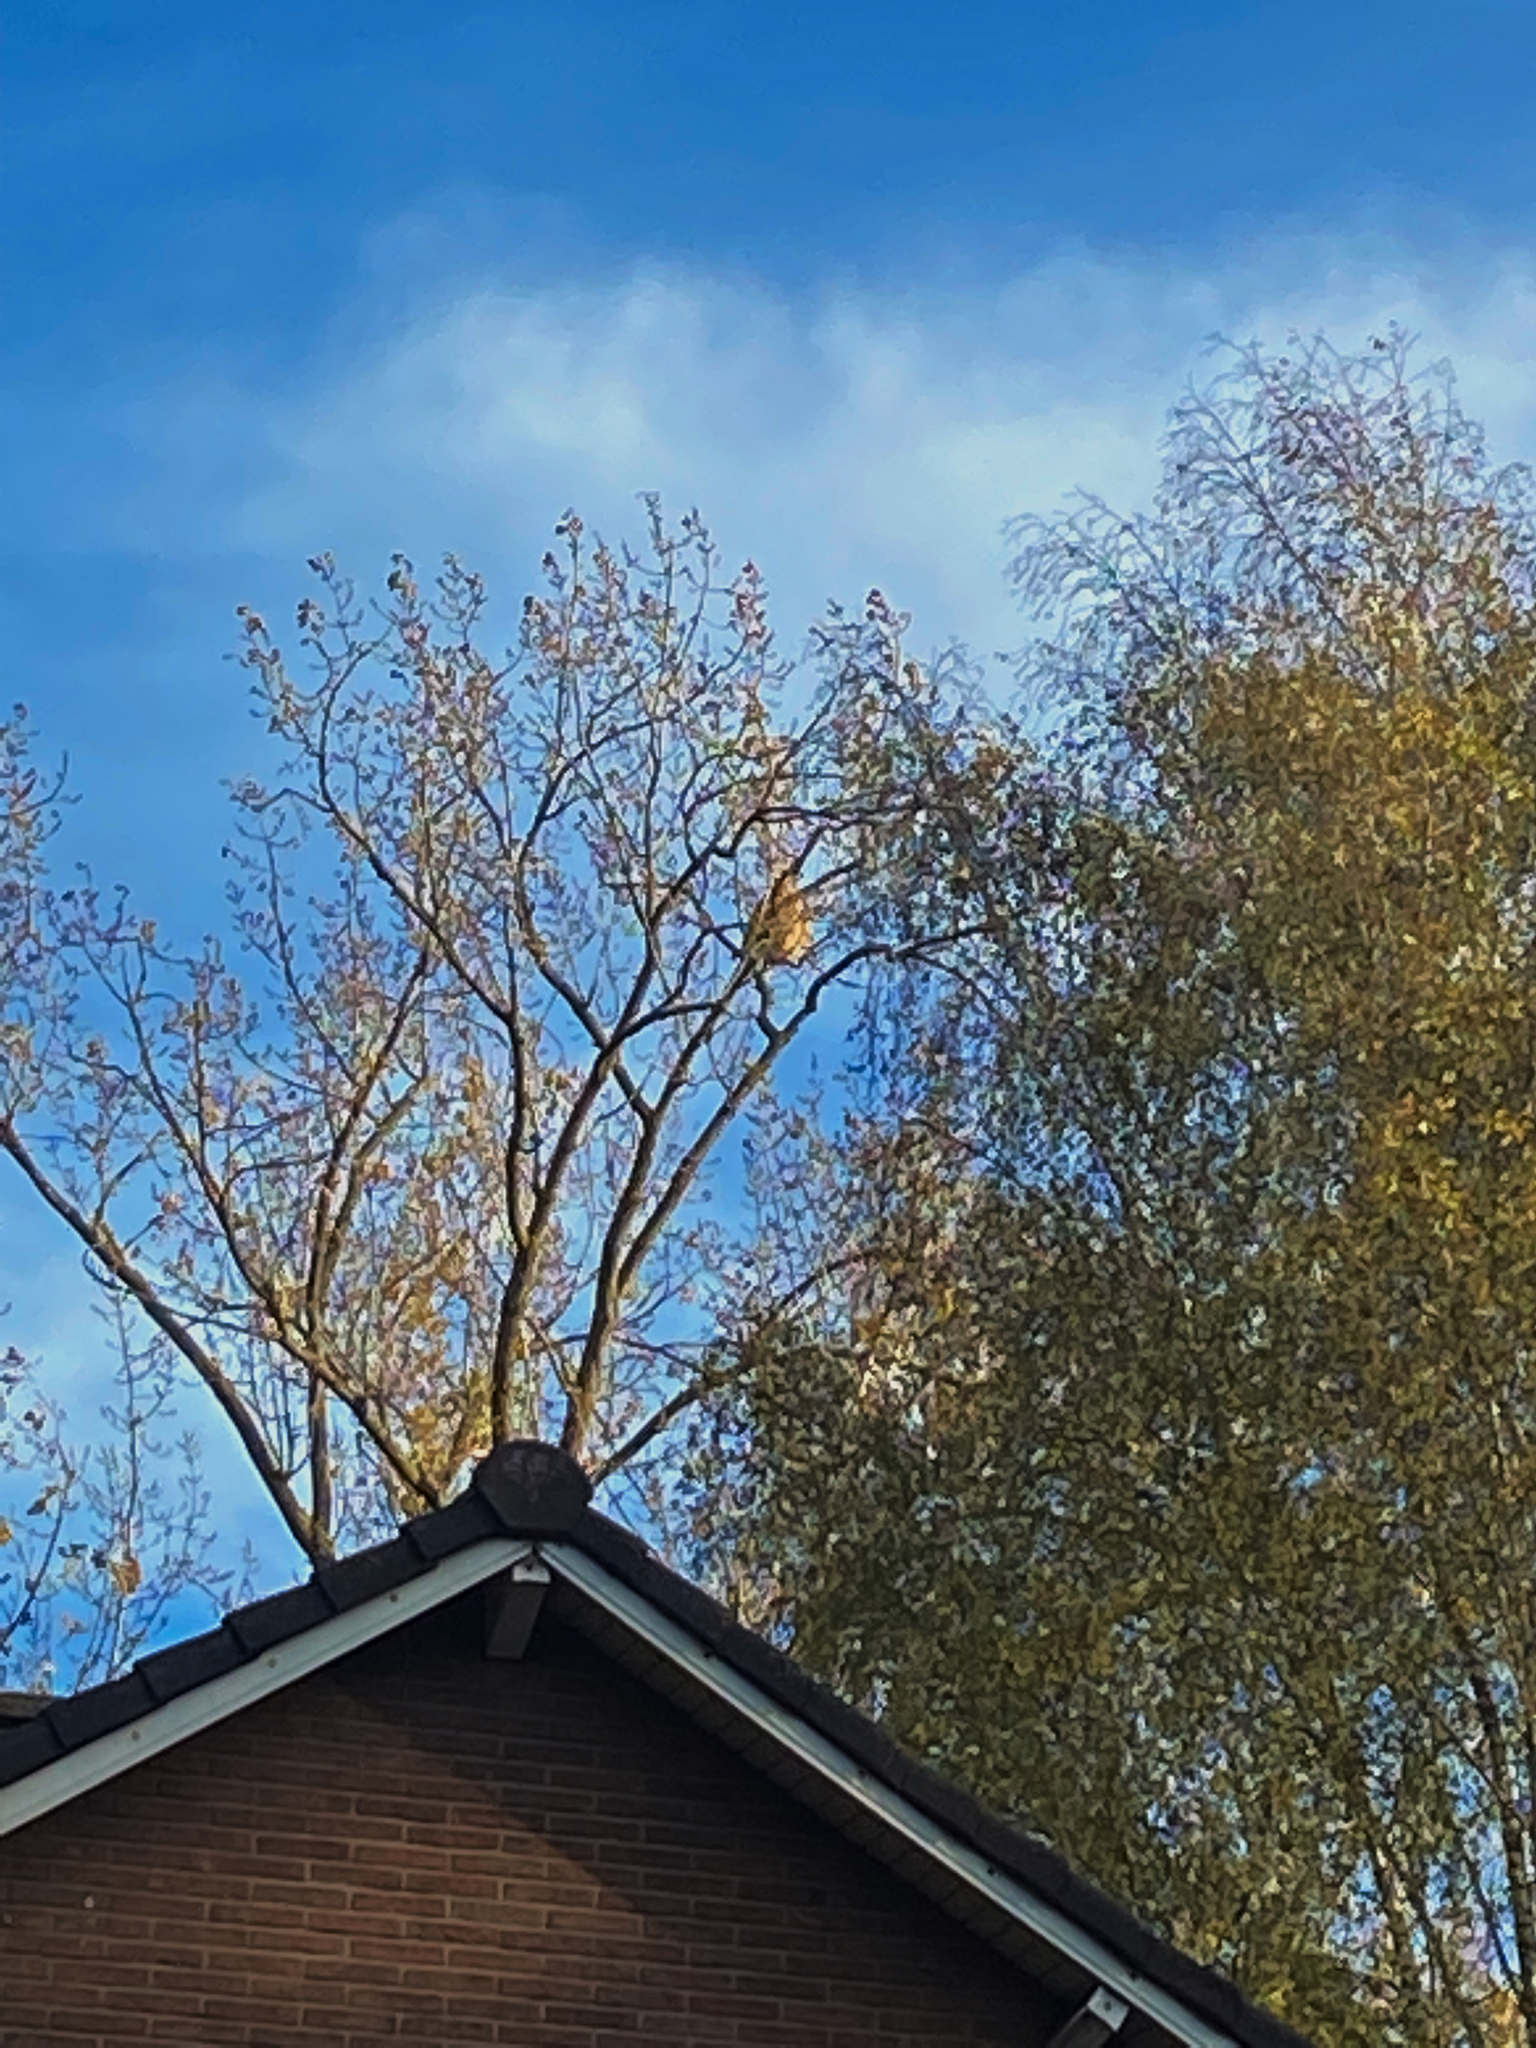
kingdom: Animalia
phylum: Arthropoda
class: Insecta
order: Hymenoptera
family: Vespidae
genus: Vespa
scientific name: Vespa velutina
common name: Asian hornet
